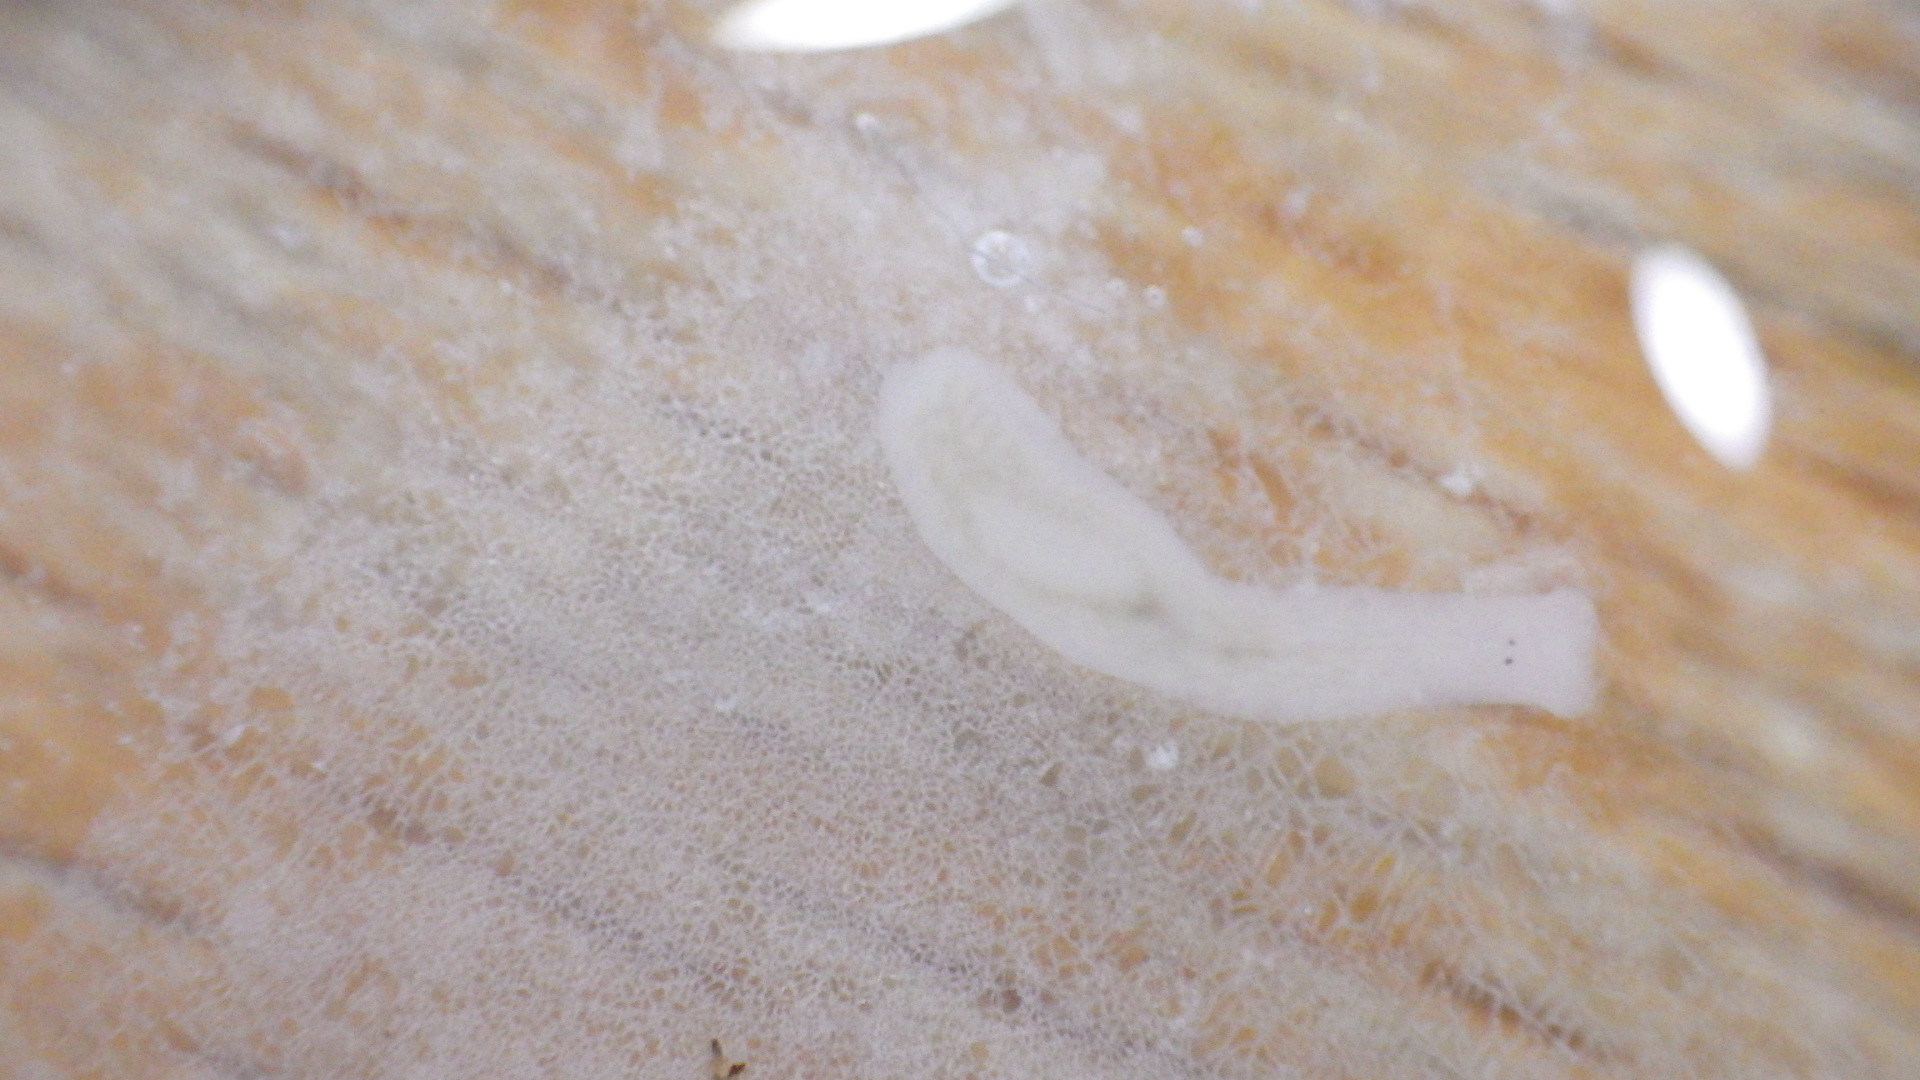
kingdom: Animalia
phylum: Platyhelminthes
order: Tricladida
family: Planariidae
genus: Phagocata
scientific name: Phagocata morgani
